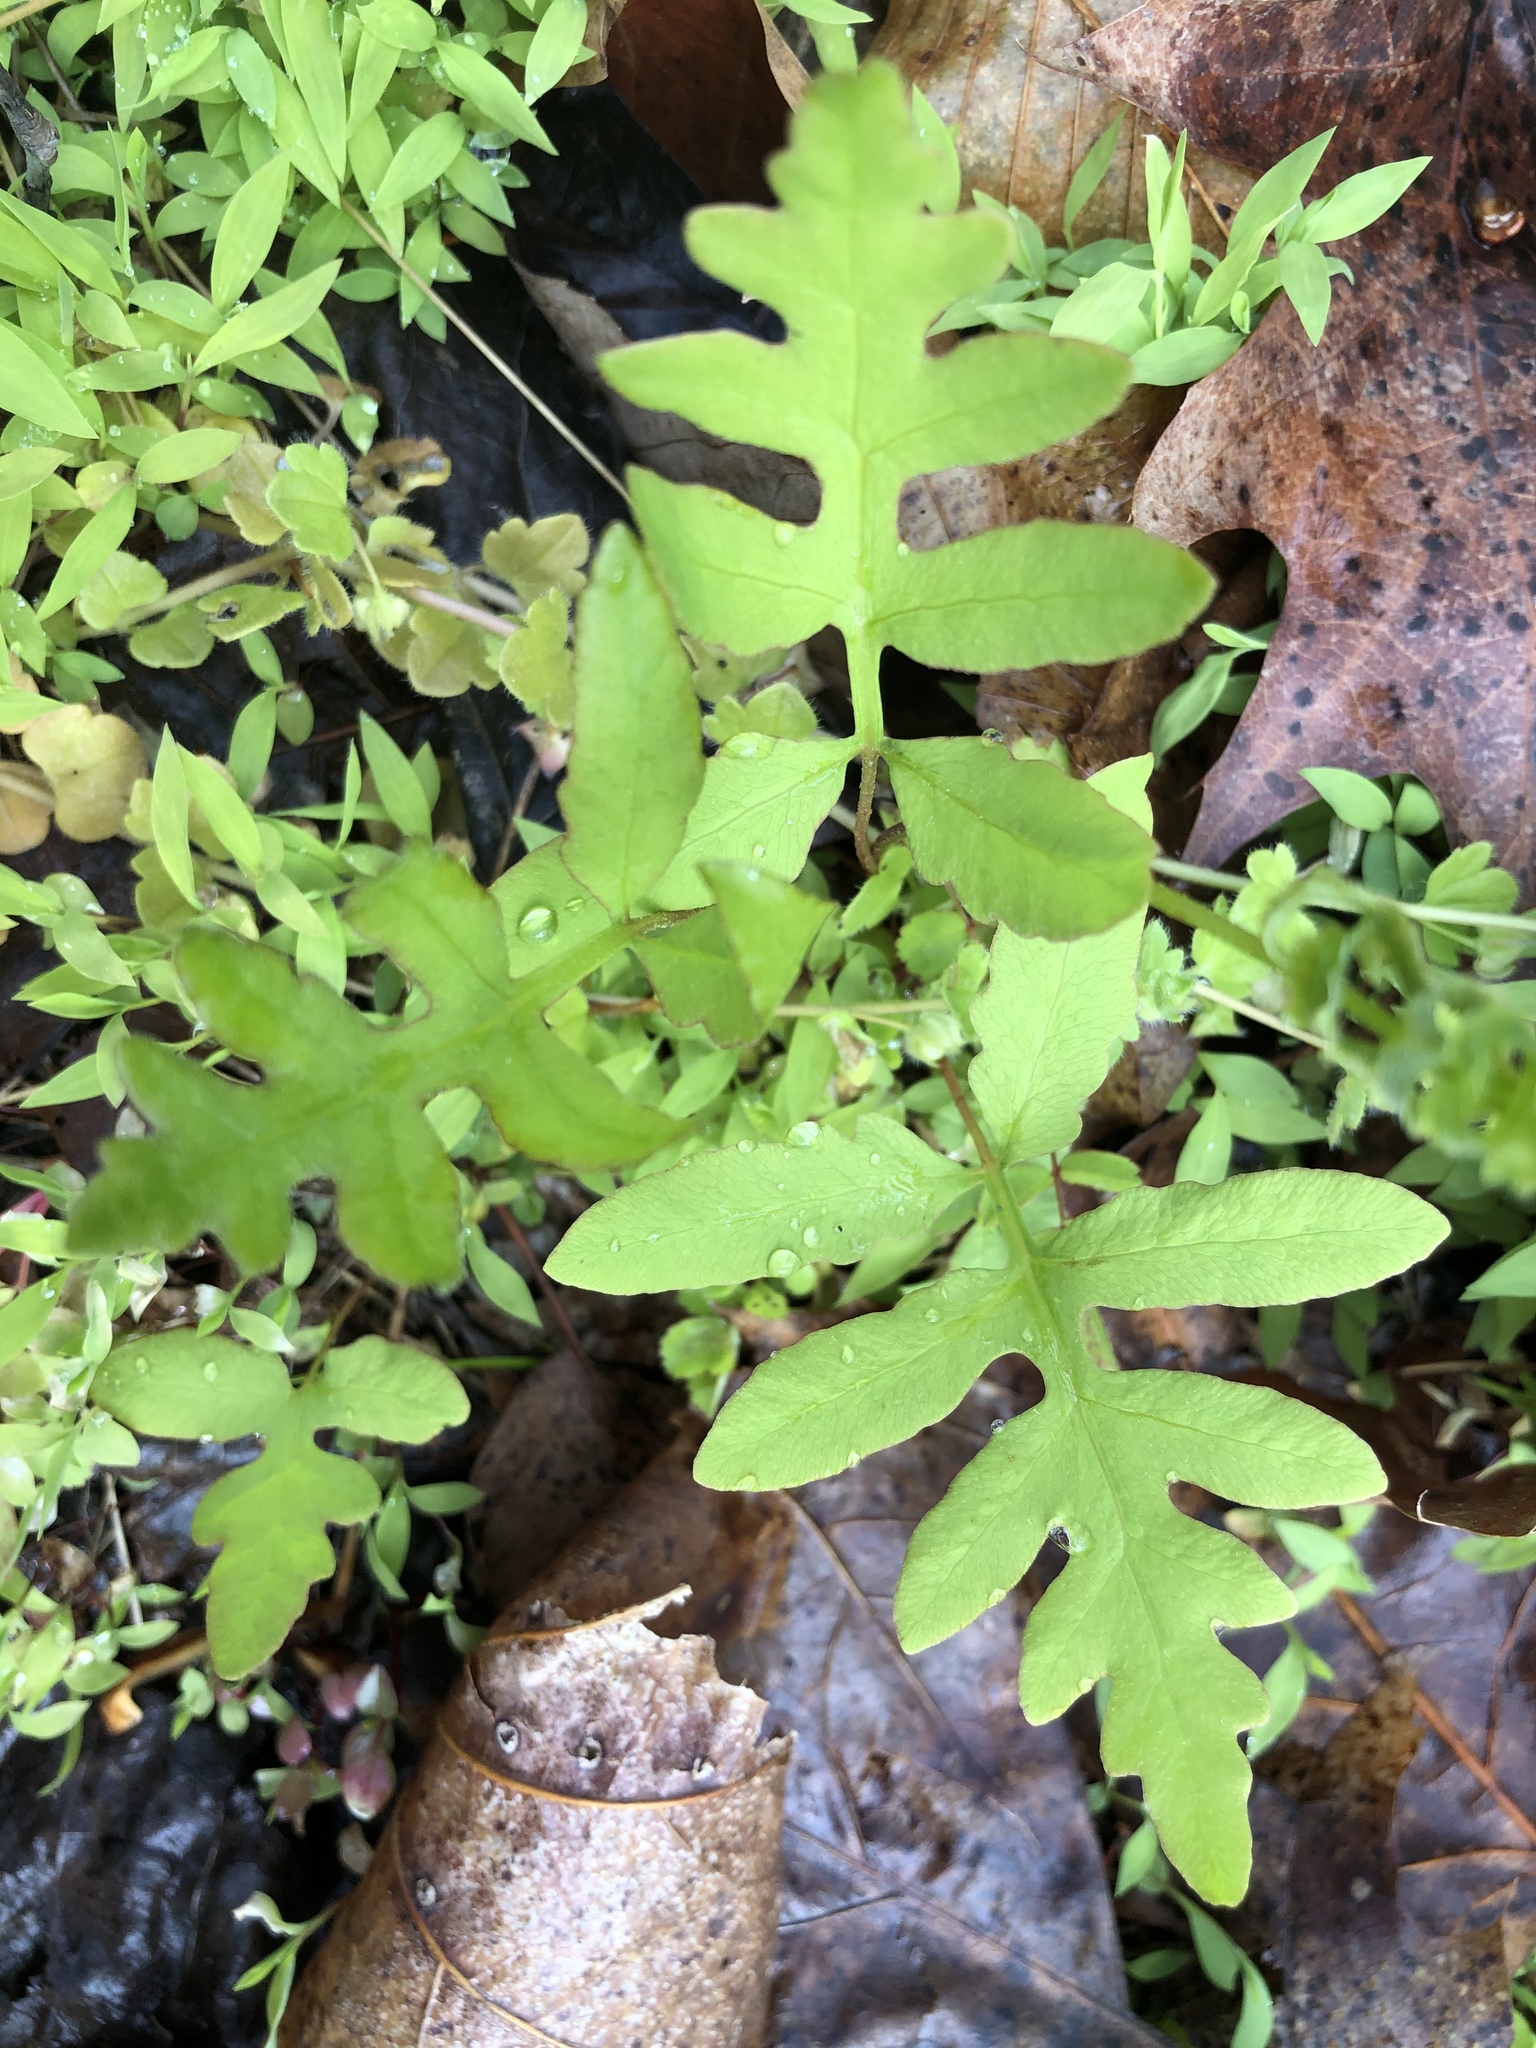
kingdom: Plantae
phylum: Tracheophyta
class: Polypodiopsida
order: Polypodiales
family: Onocleaceae
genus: Onoclea
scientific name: Onoclea sensibilis
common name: Sensitive fern
